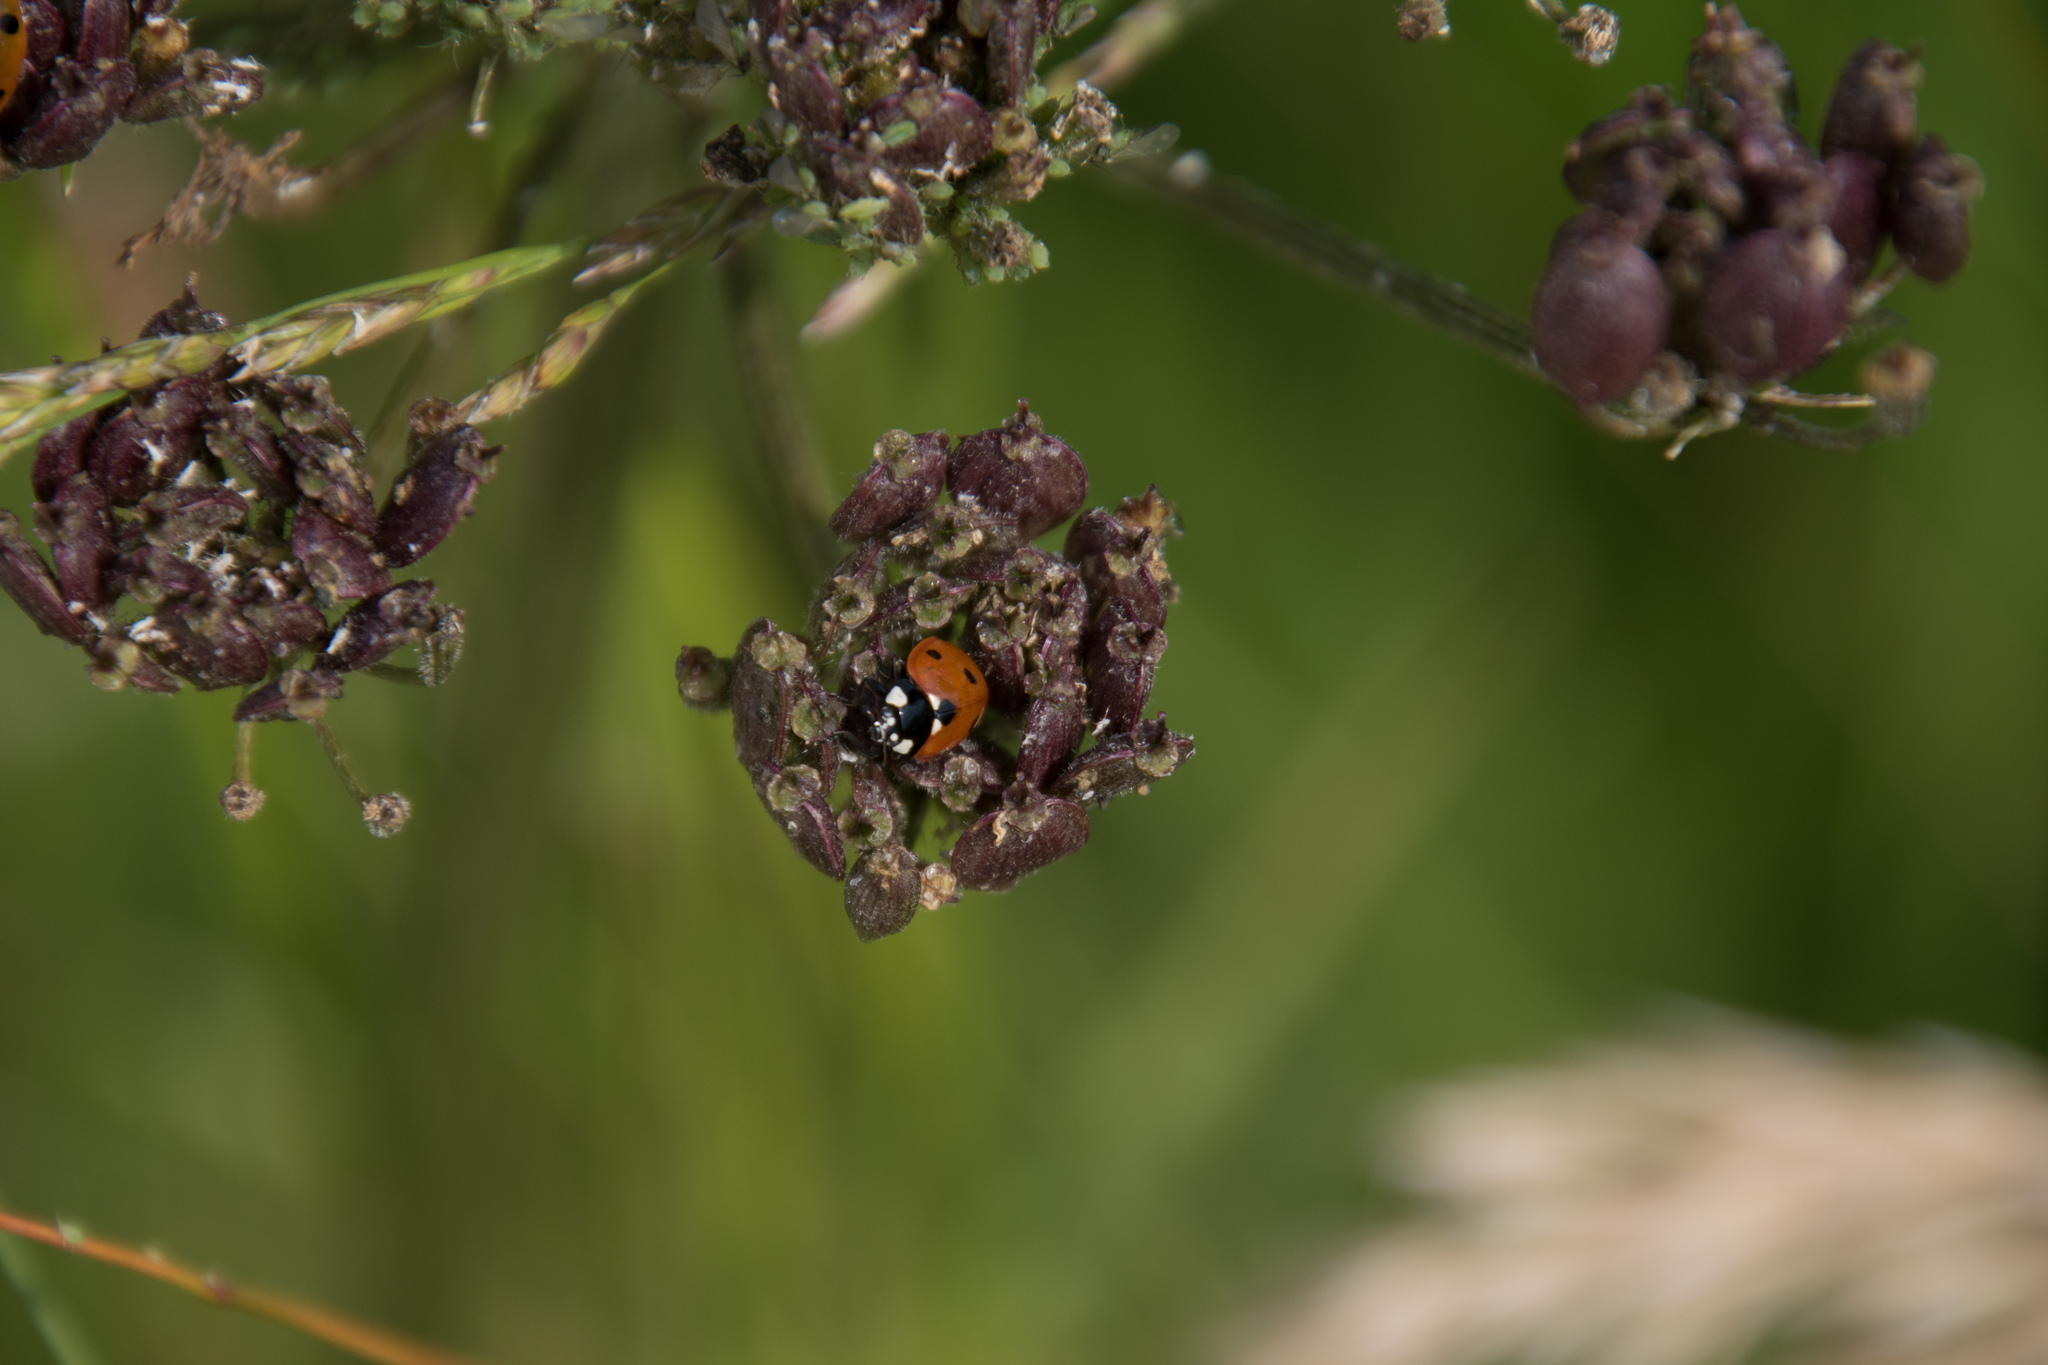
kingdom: Animalia
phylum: Arthropoda
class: Insecta
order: Coleoptera
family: Coccinellidae
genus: Coccinella
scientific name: Coccinella septempunctata
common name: Sevenspotted lady beetle
